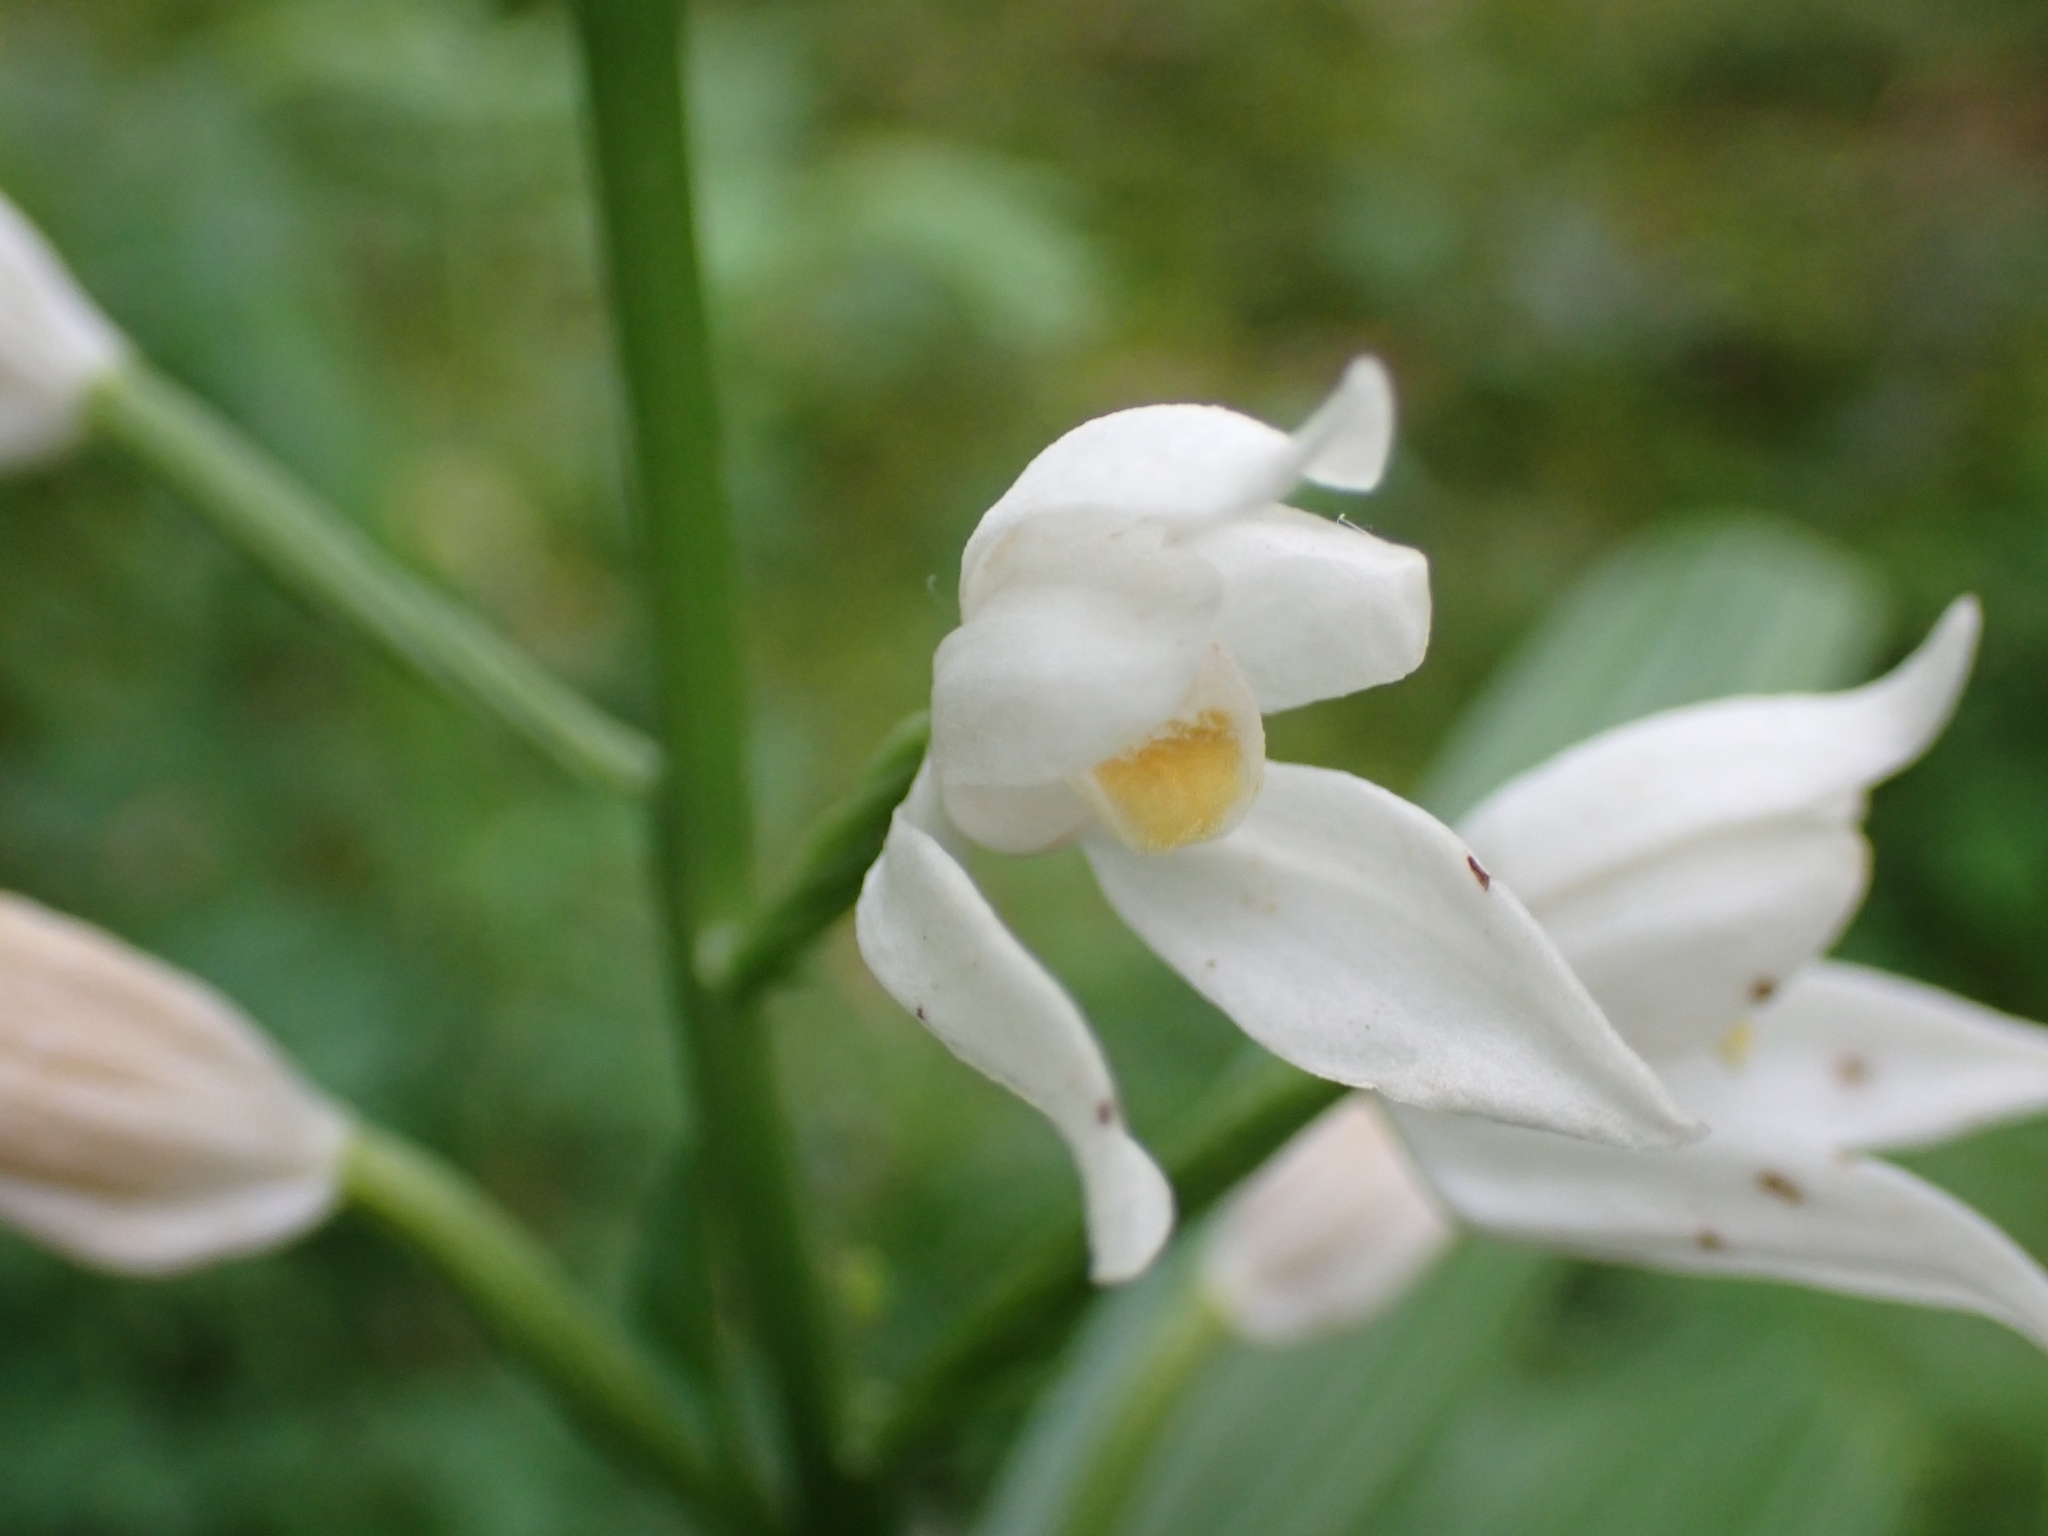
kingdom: Plantae
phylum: Tracheophyta
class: Liliopsida
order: Asparagales
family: Orchidaceae
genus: Cephalanthera
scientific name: Cephalanthera schulzei
